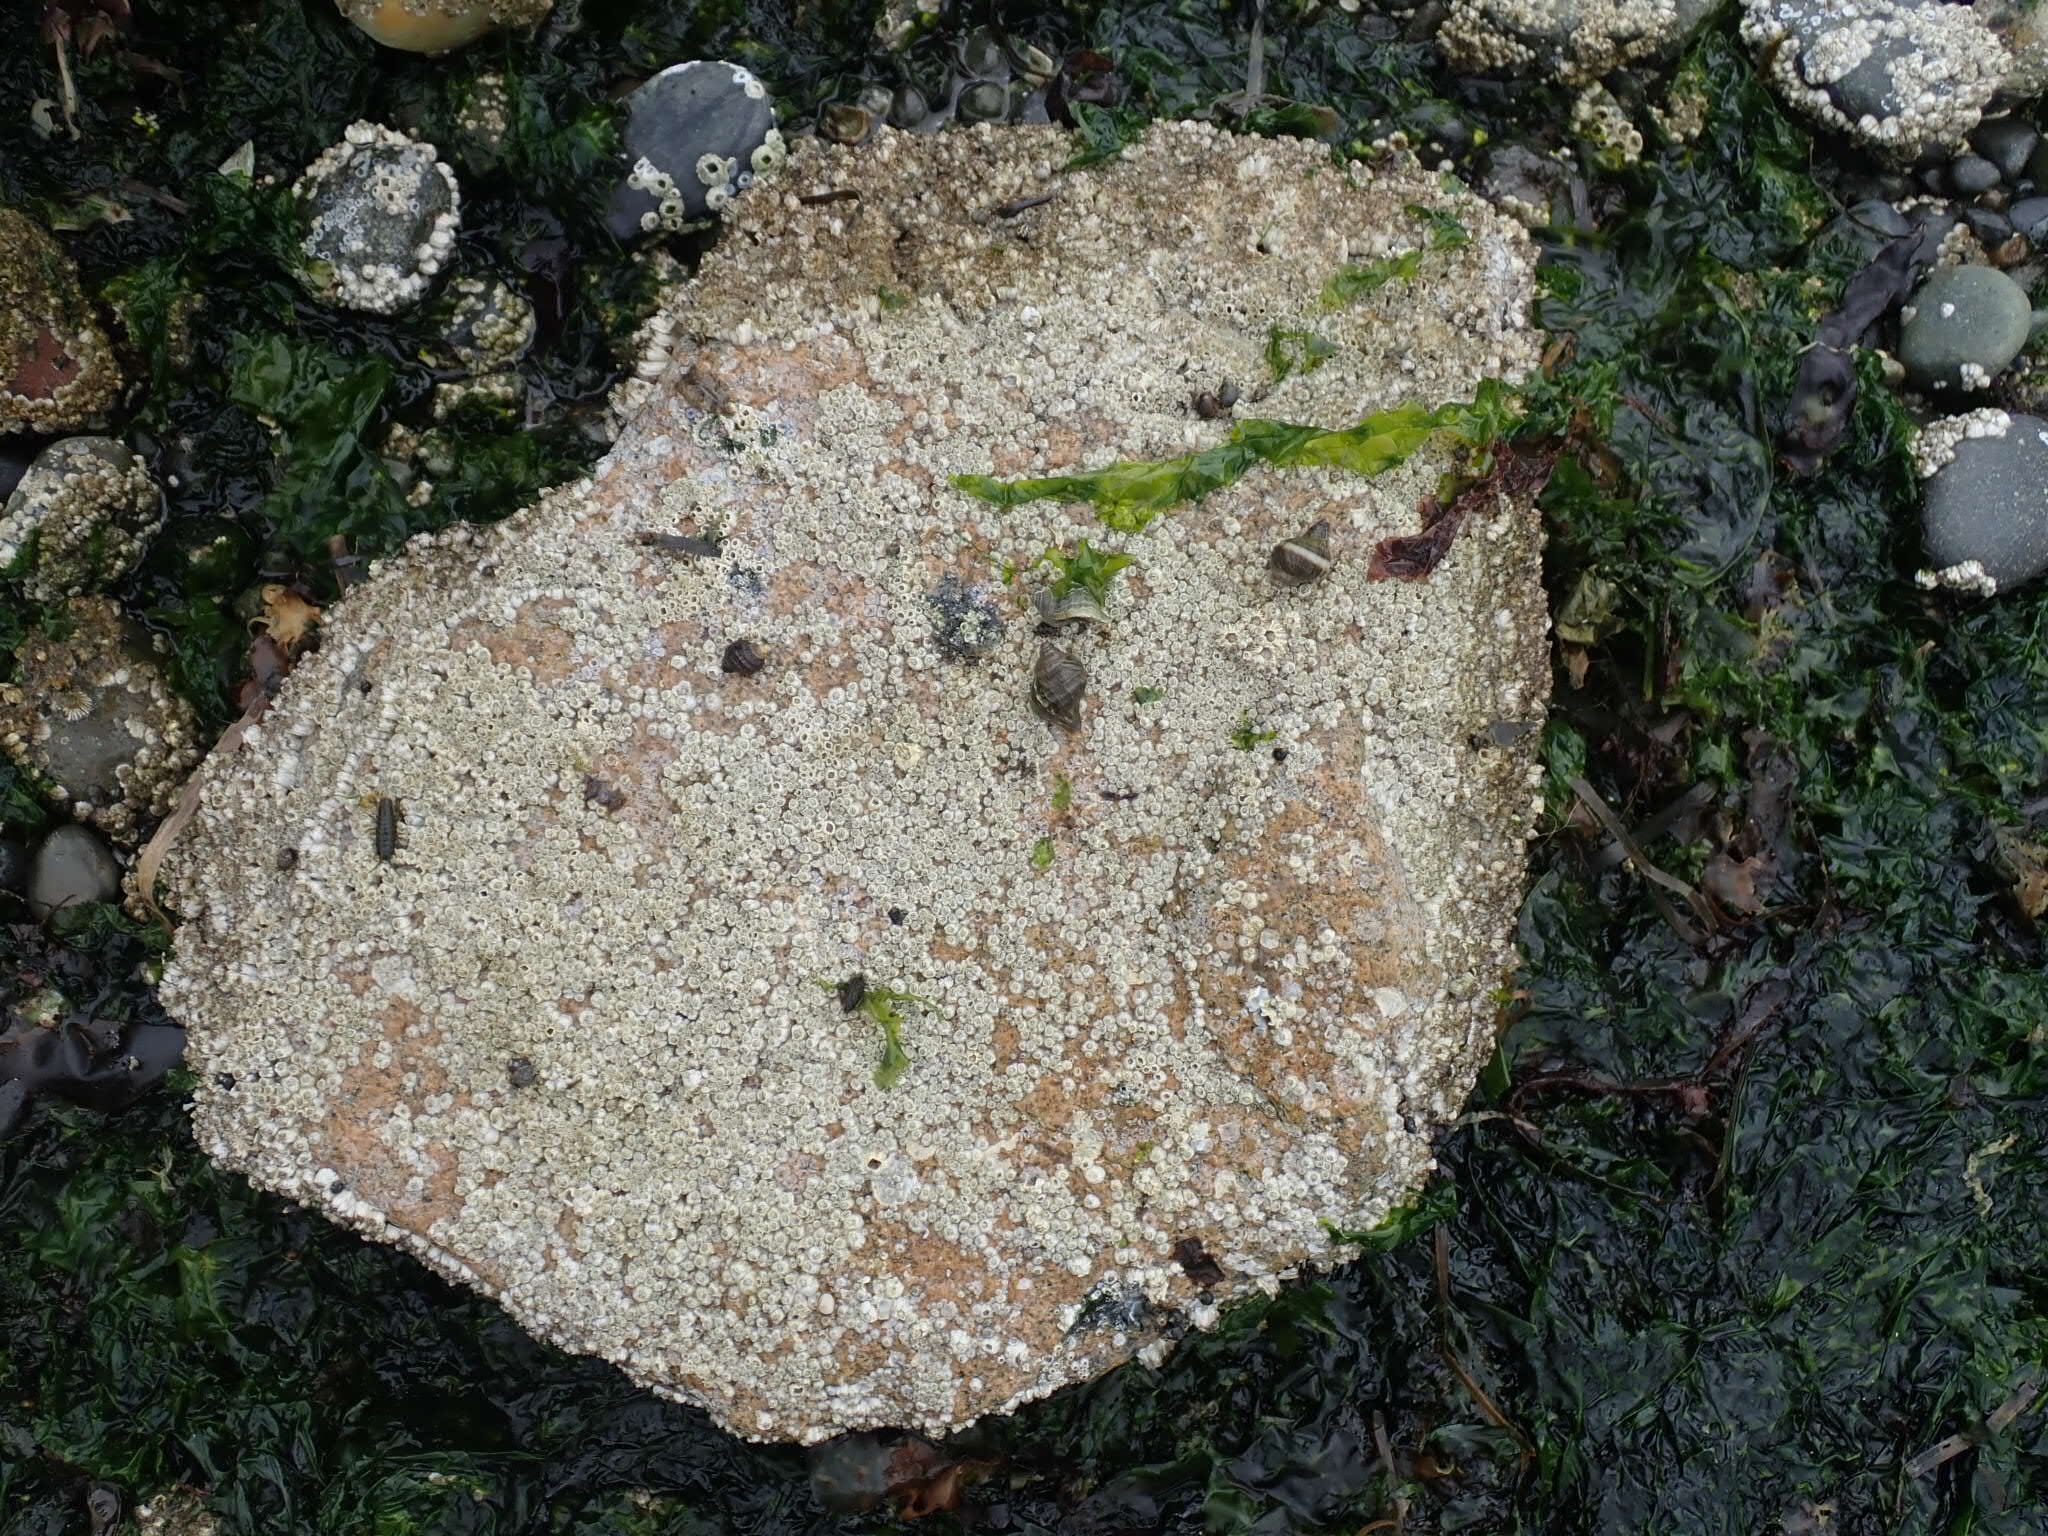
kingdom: Animalia
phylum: Arthropoda
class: Malacostraca
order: Isopoda
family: Idoteidae
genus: Pentidotea
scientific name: Pentidotea wosnesenskii
